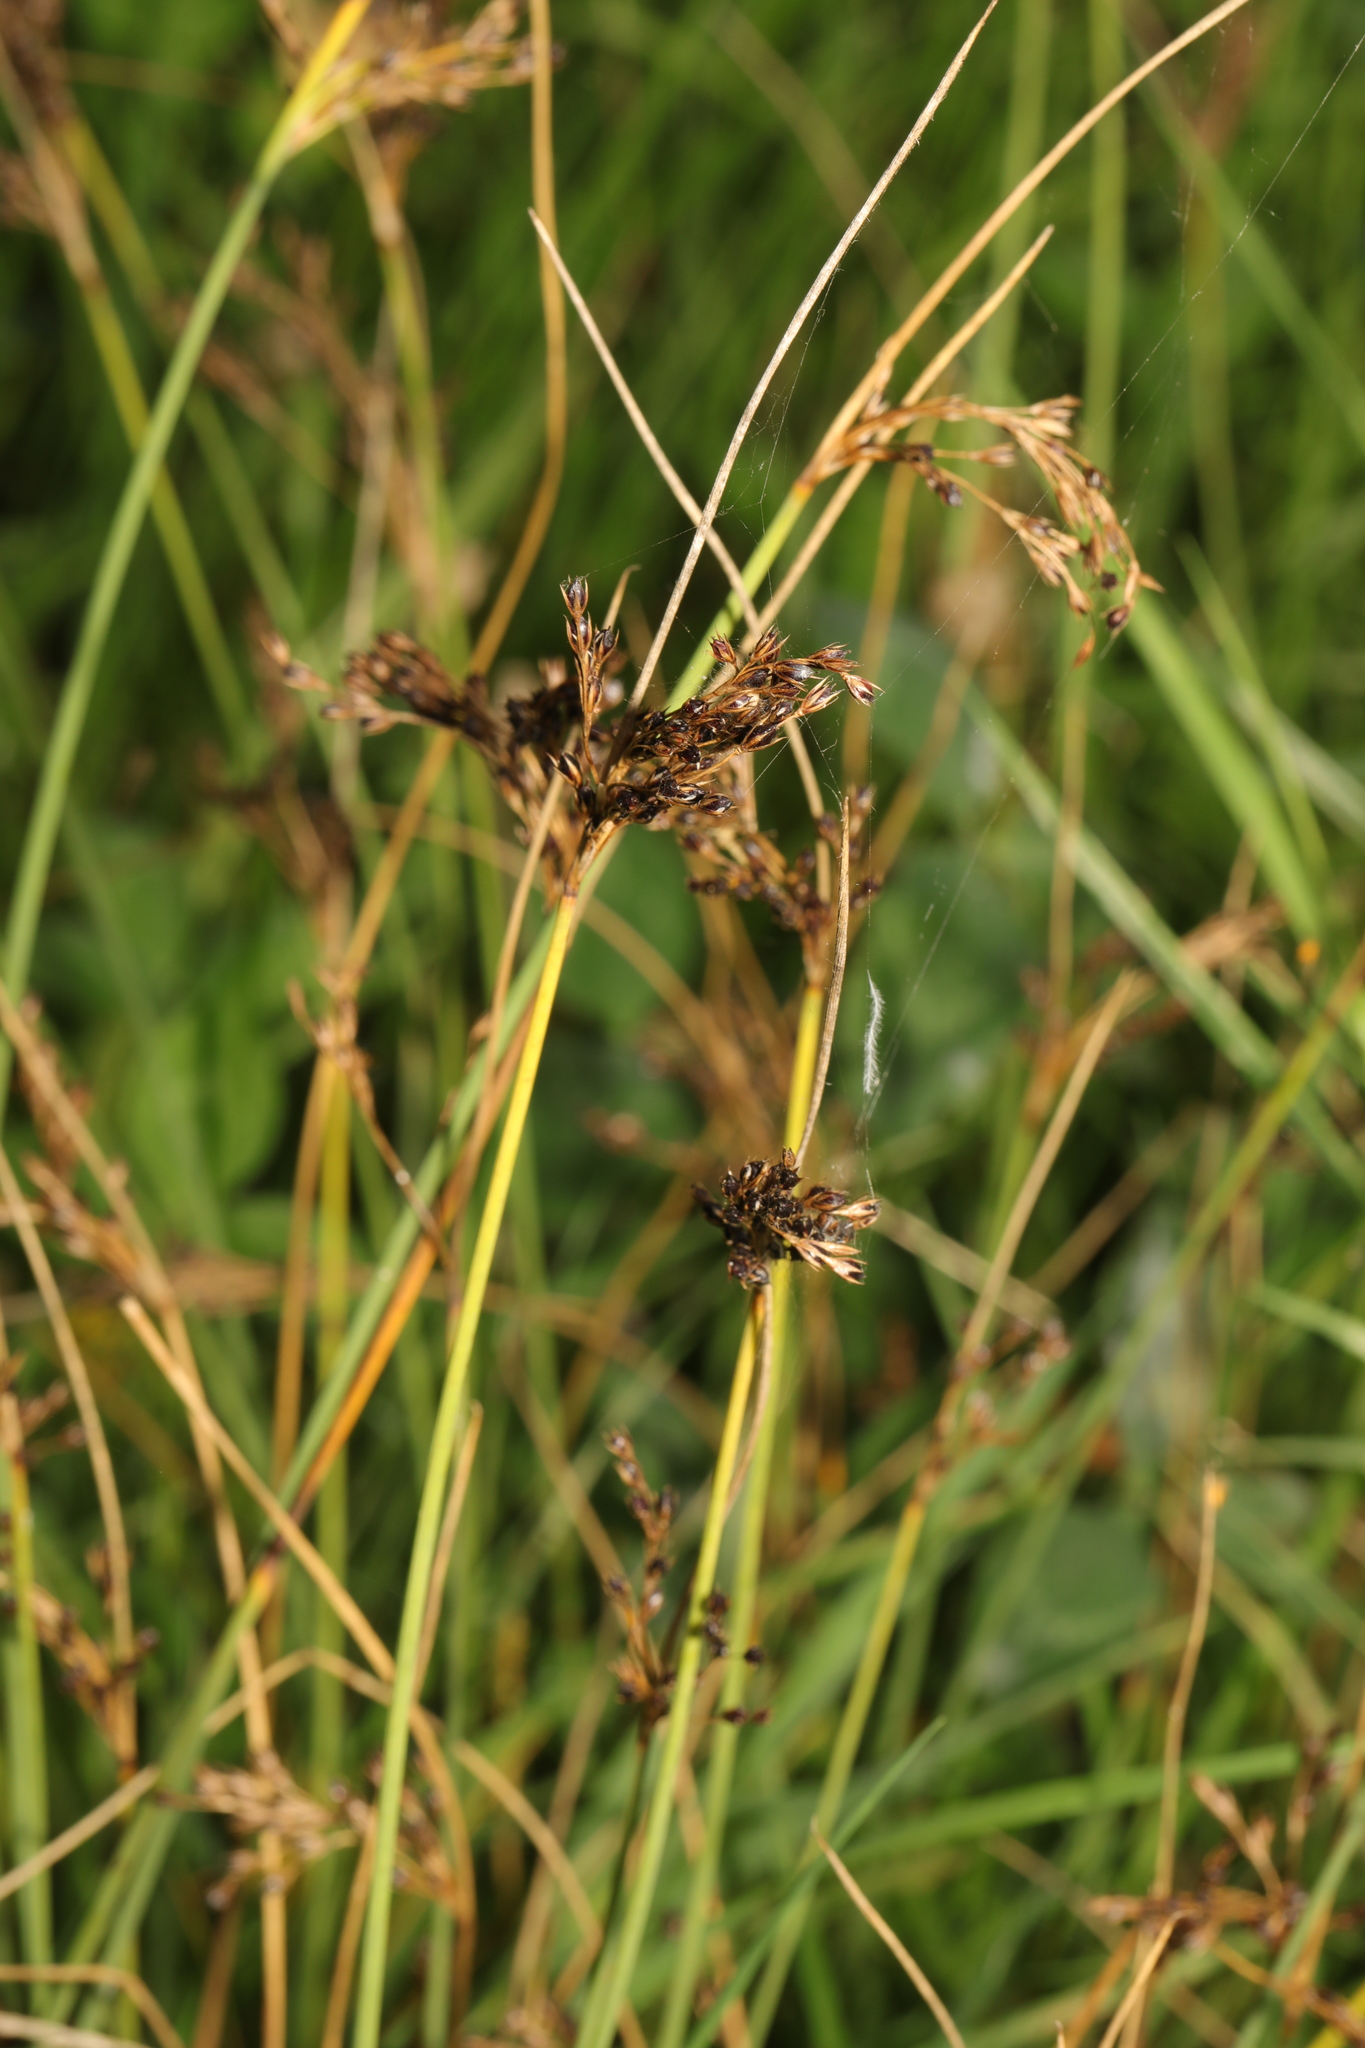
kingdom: Plantae
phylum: Tracheophyta
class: Liliopsida
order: Poales
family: Juncaceae
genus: Juncus
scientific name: Juncus inflexus
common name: Hard rush
